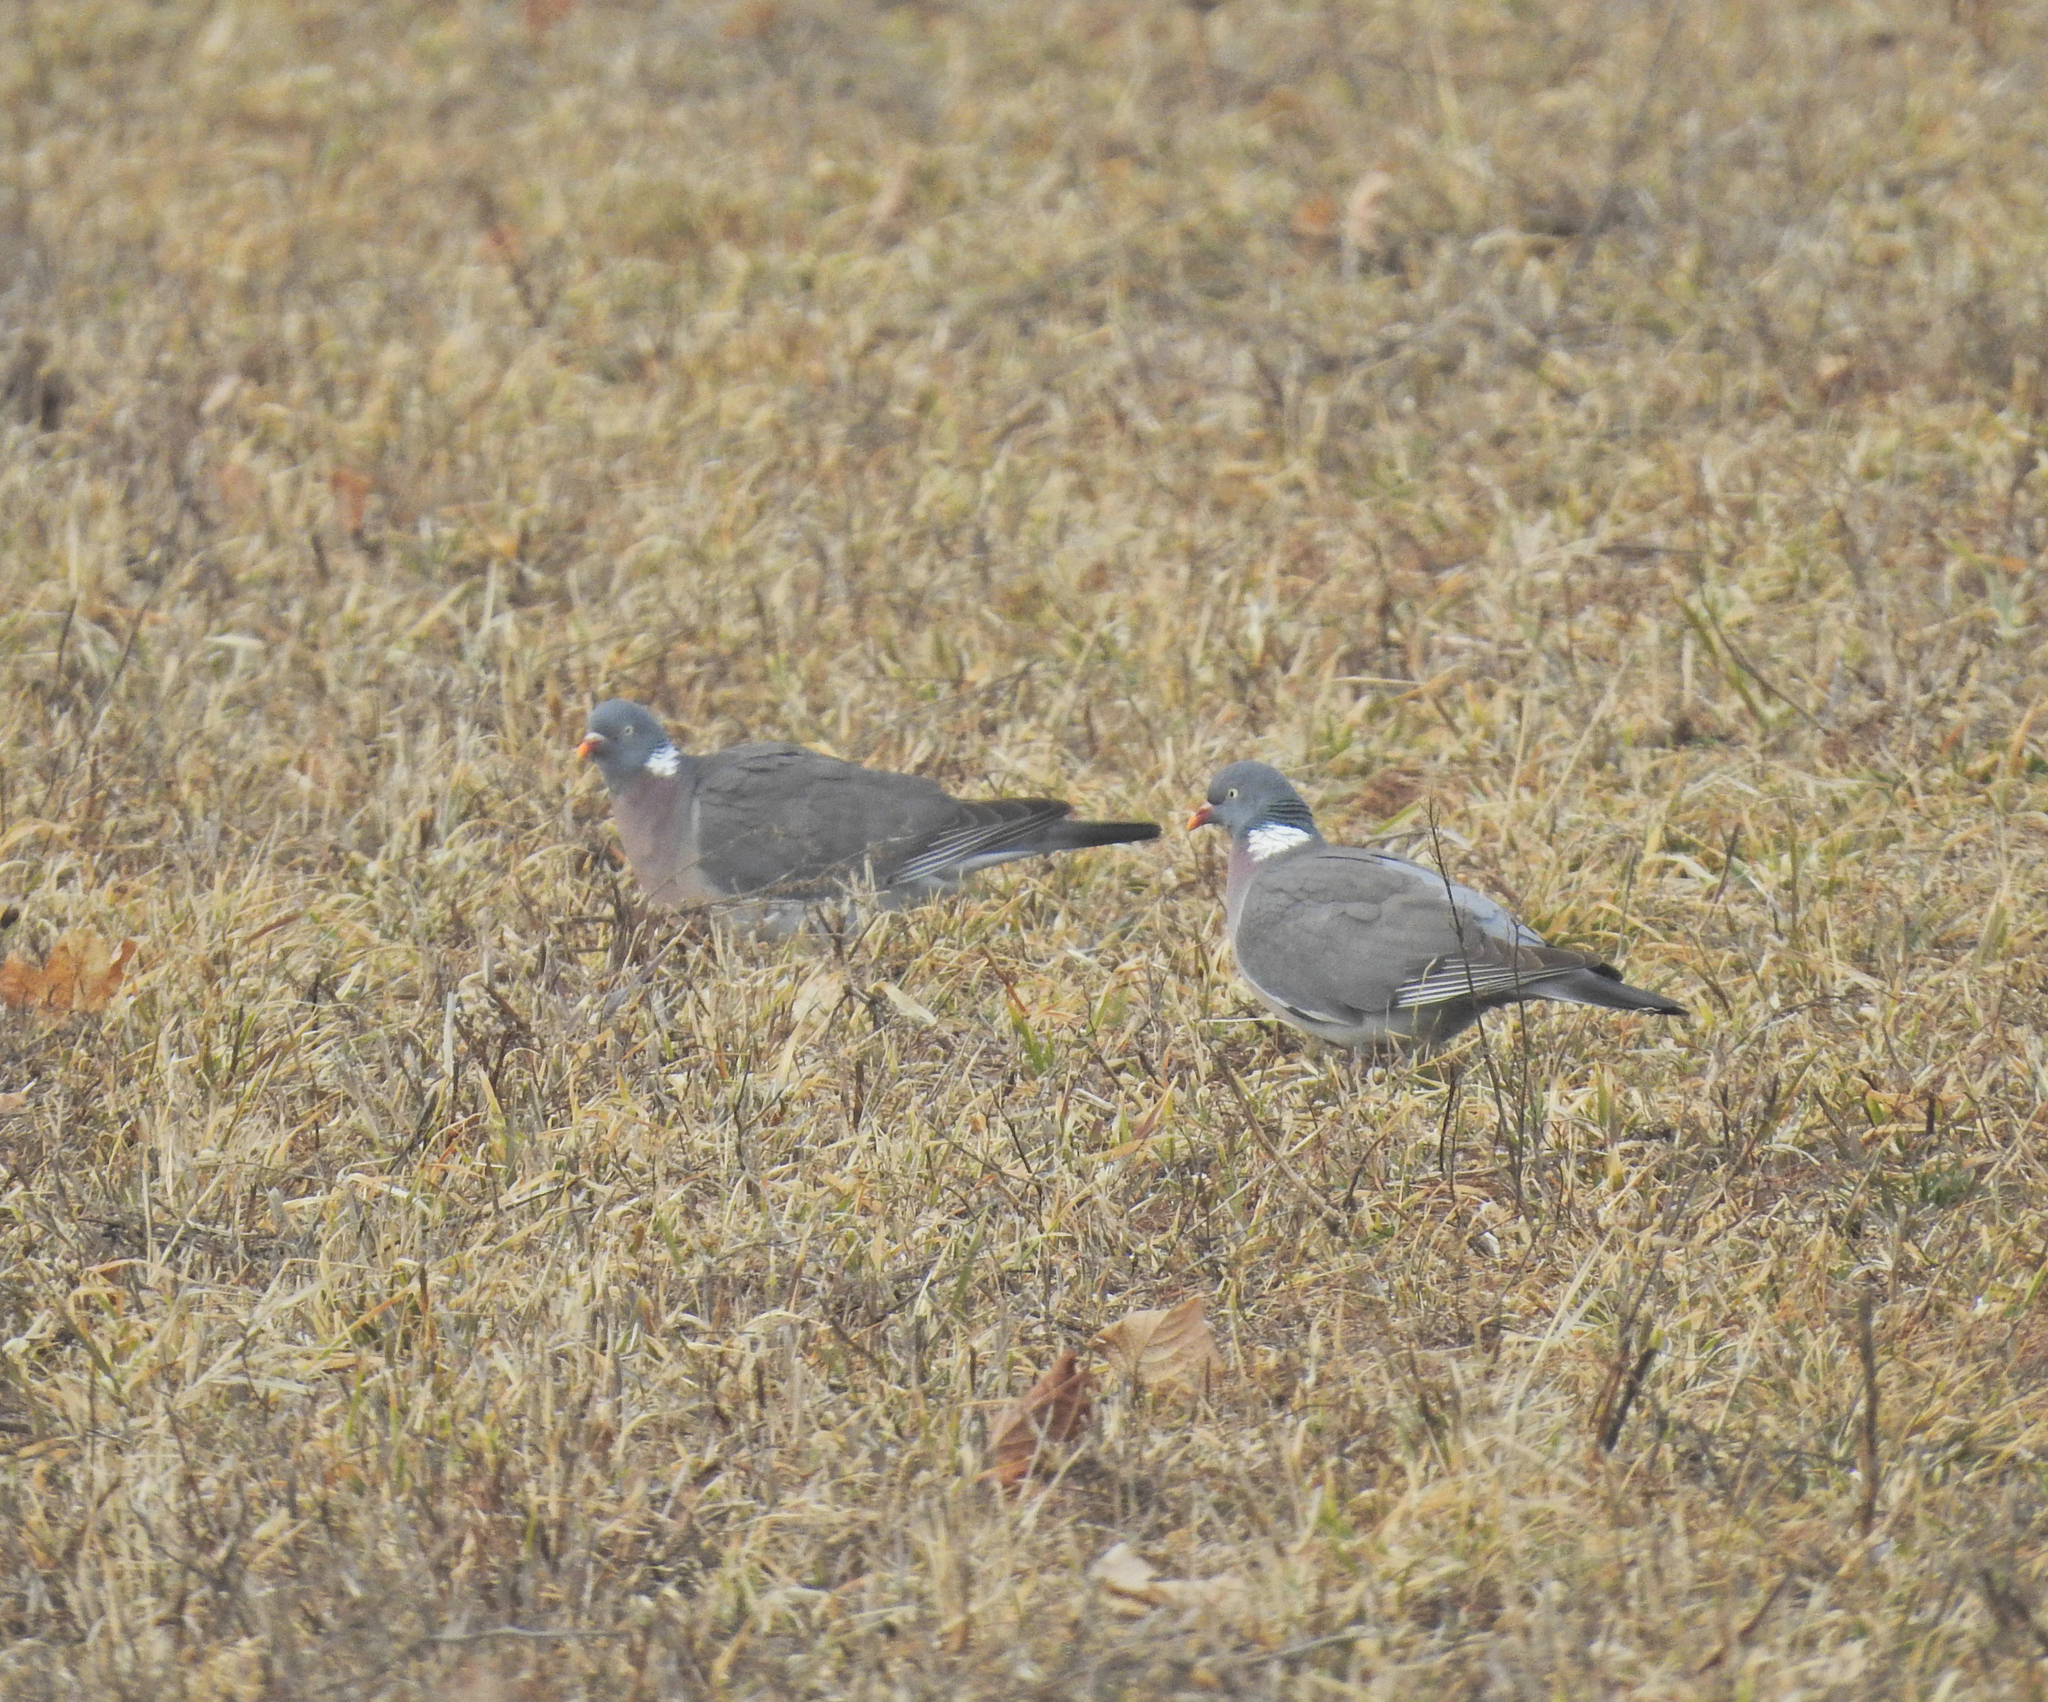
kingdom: Animalia
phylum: Chordata
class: Aves
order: Columbiformes
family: Columbidae
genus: Columba
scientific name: Columba palumbus
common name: Common wood pigeon
